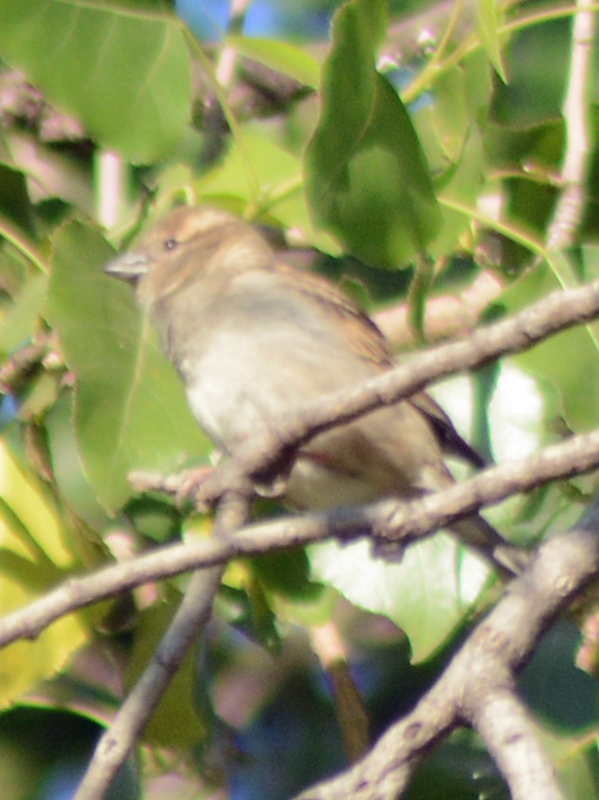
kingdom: Animalia
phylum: Chordata
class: Aves
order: Passeriformes
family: Passeridae
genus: Passer
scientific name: Passer domesticus
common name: House sparrow
